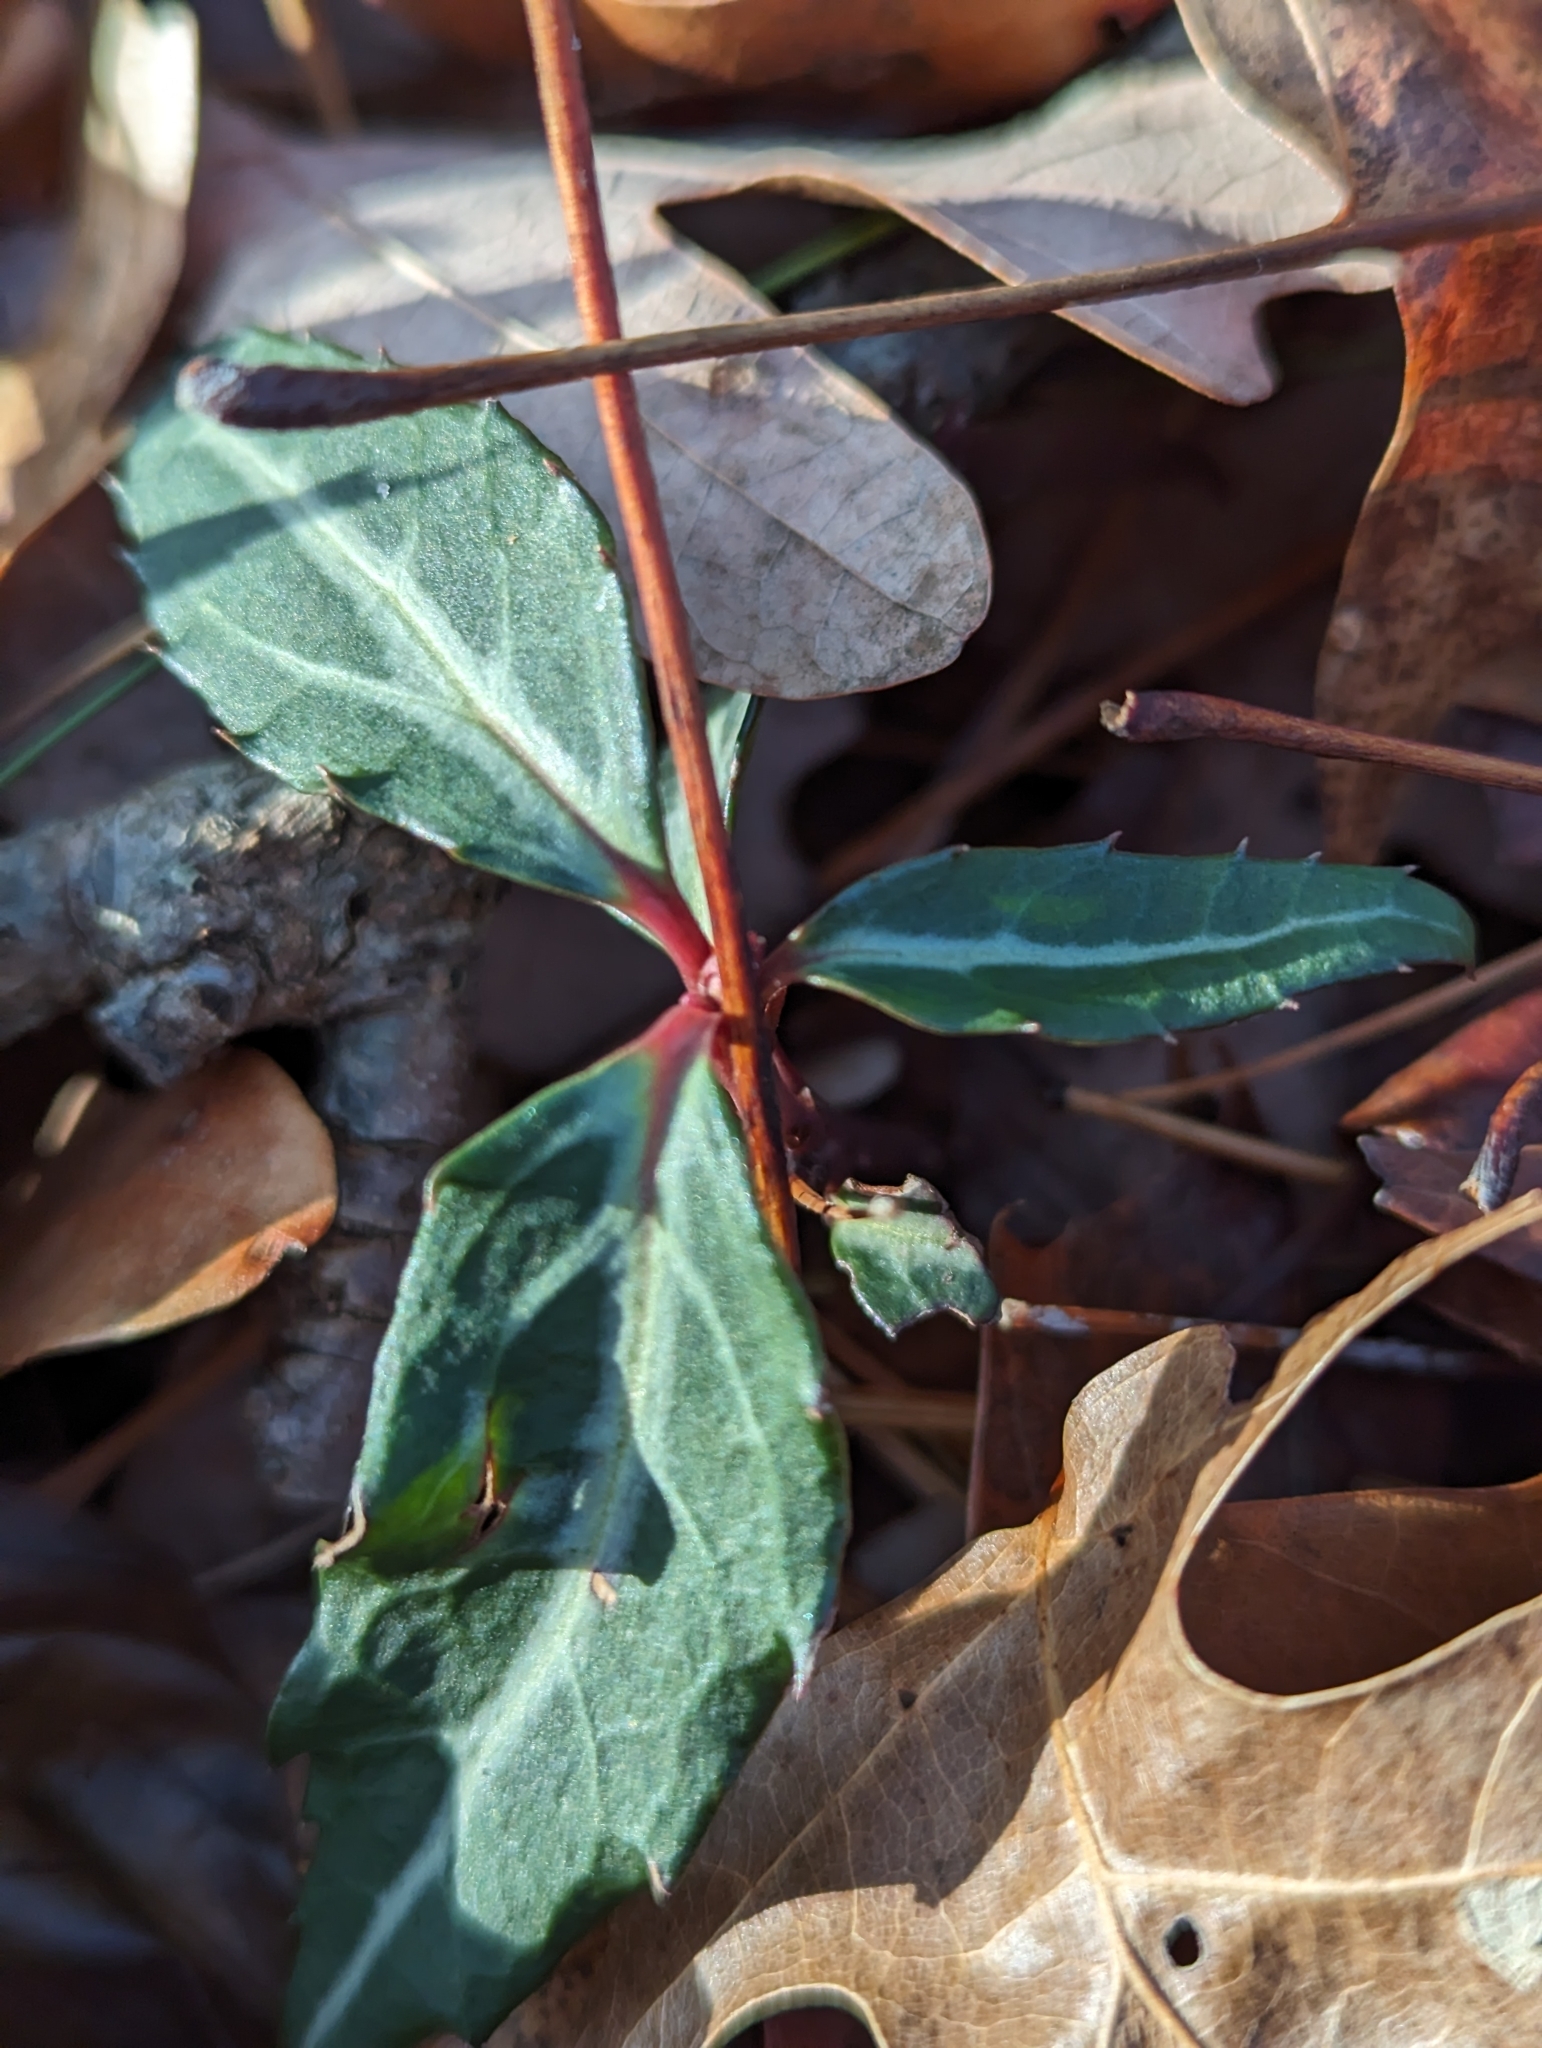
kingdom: Plantae
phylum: Tracheophyta
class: Magnoliopsida
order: Ericales
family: Ericaceae
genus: Chimaphila
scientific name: Chimaphila maculata
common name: Spotted pipsissewa
